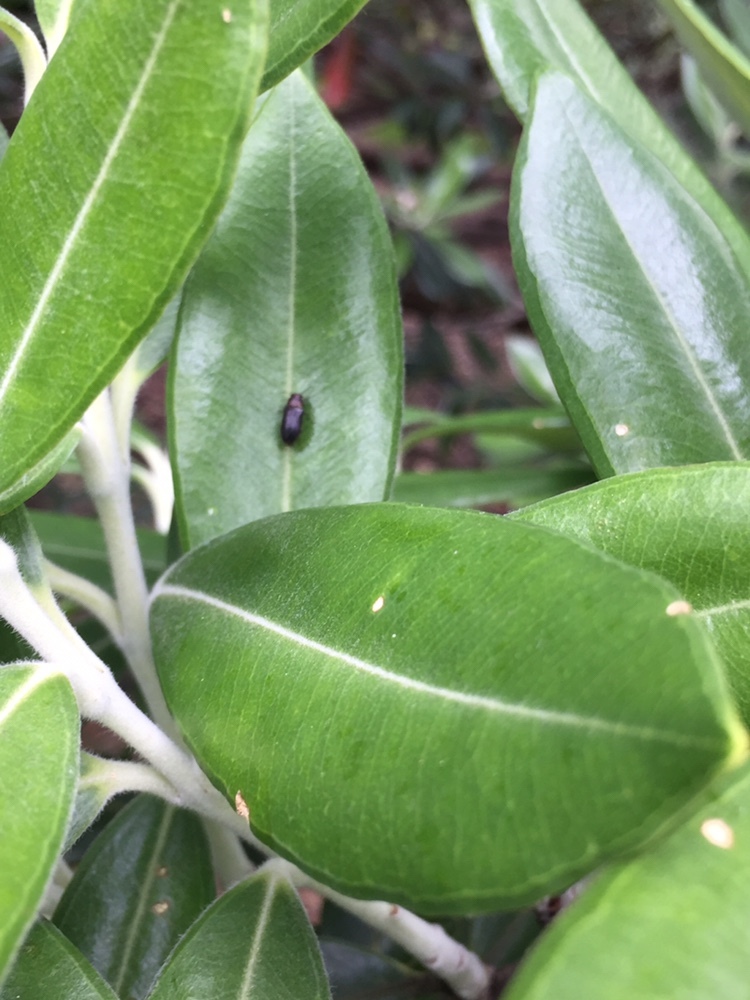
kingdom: Animalia
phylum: Arthropoda
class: Insecta
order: Coleoptera
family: Buprestidae
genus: Maoraxia
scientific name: Maoraxia eremita
